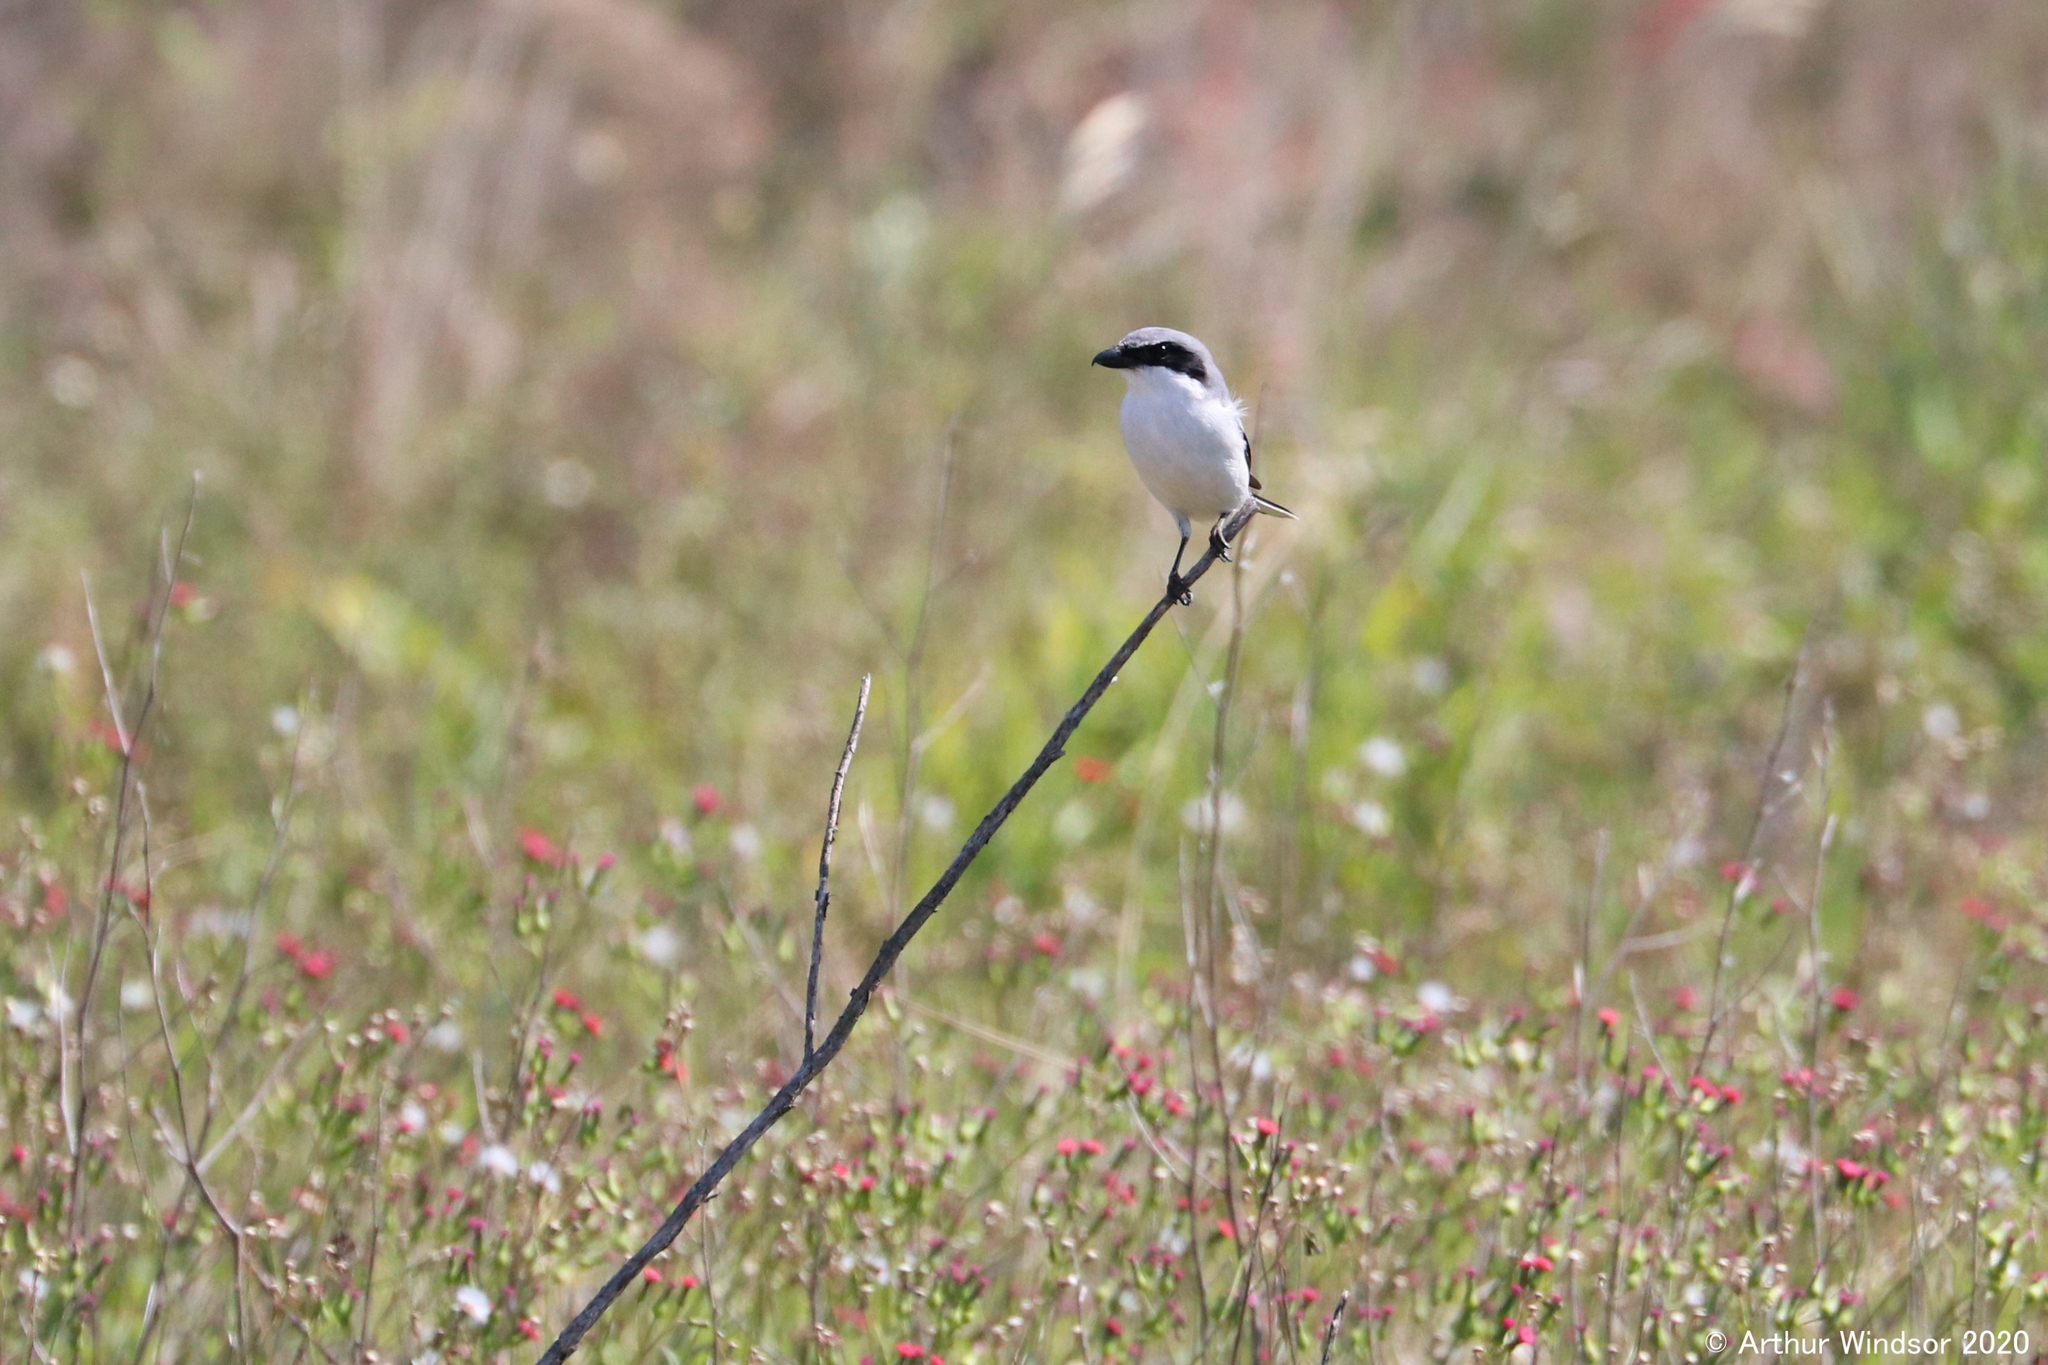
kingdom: Animalia
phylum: Chordata
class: Aves
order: Passeriformes
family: Laniidae
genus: Lanius
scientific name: Lanius ludovicianus
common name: Loggerhead shrike
